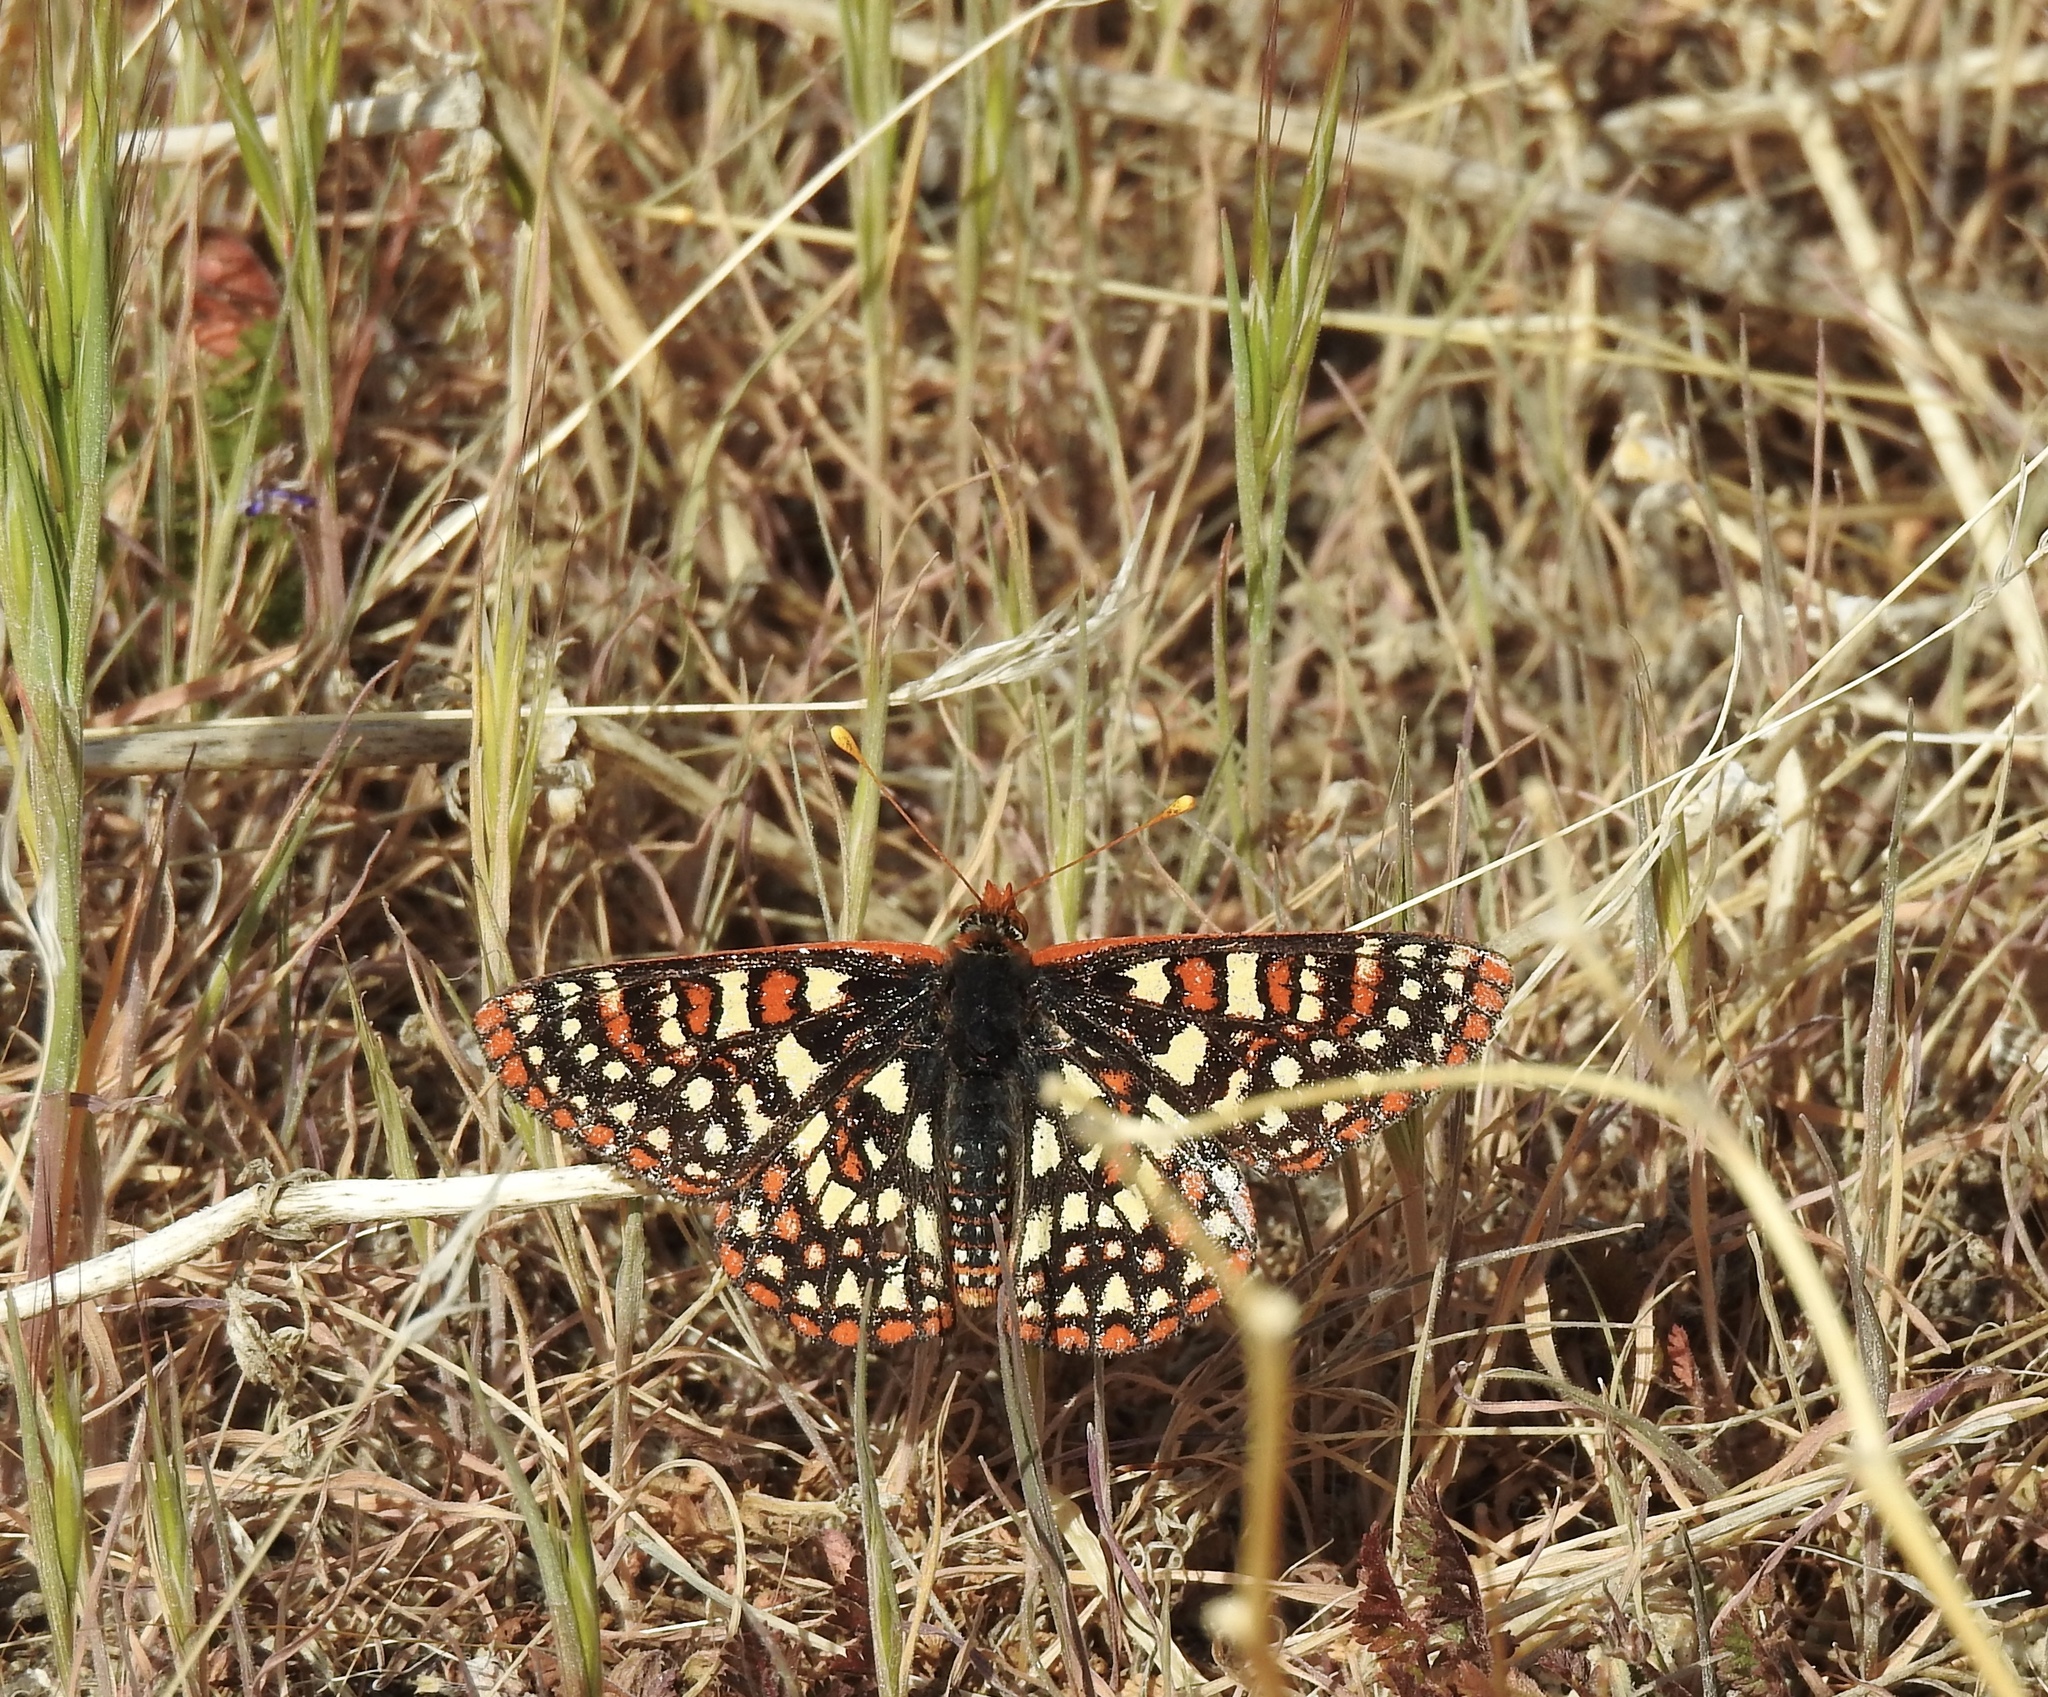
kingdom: Animalia
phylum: Arthropoda
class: Insecta
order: Lepidoptera
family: Nymphalidae
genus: Occidryas
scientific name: Occidryas chalcedona
